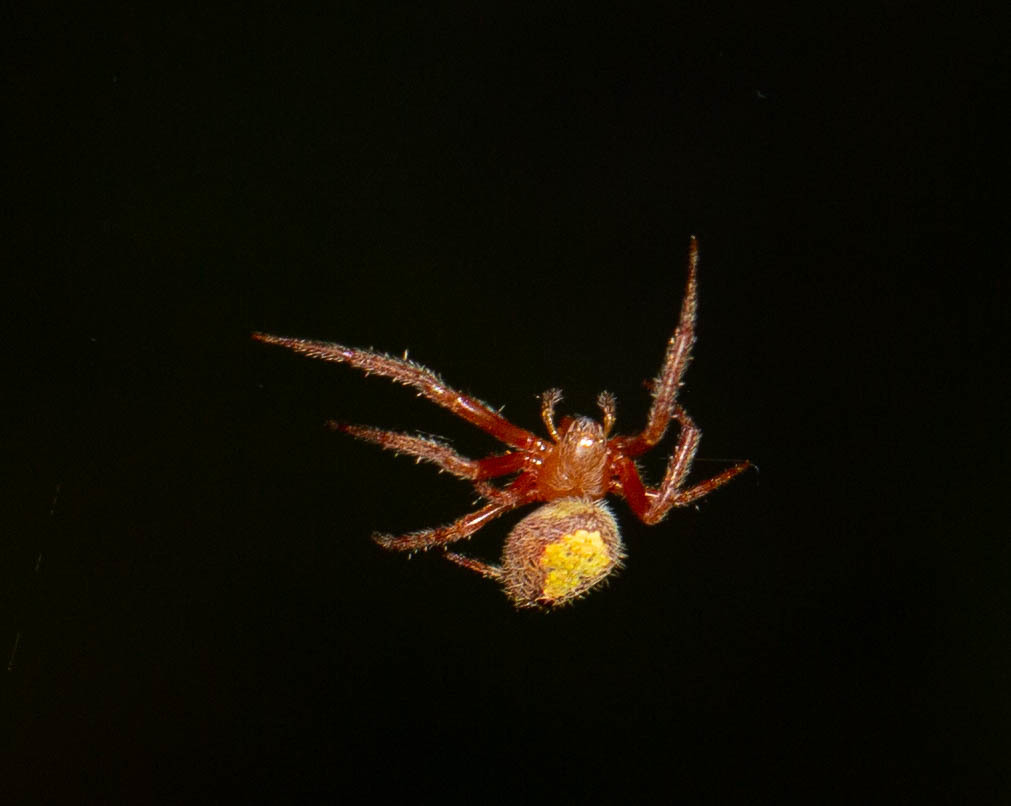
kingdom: Animalia
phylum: Arthropoda
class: Arachnida
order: Araneae
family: Araneidae
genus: Eriophora
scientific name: Eriophora ravilla
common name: Orb weavers
